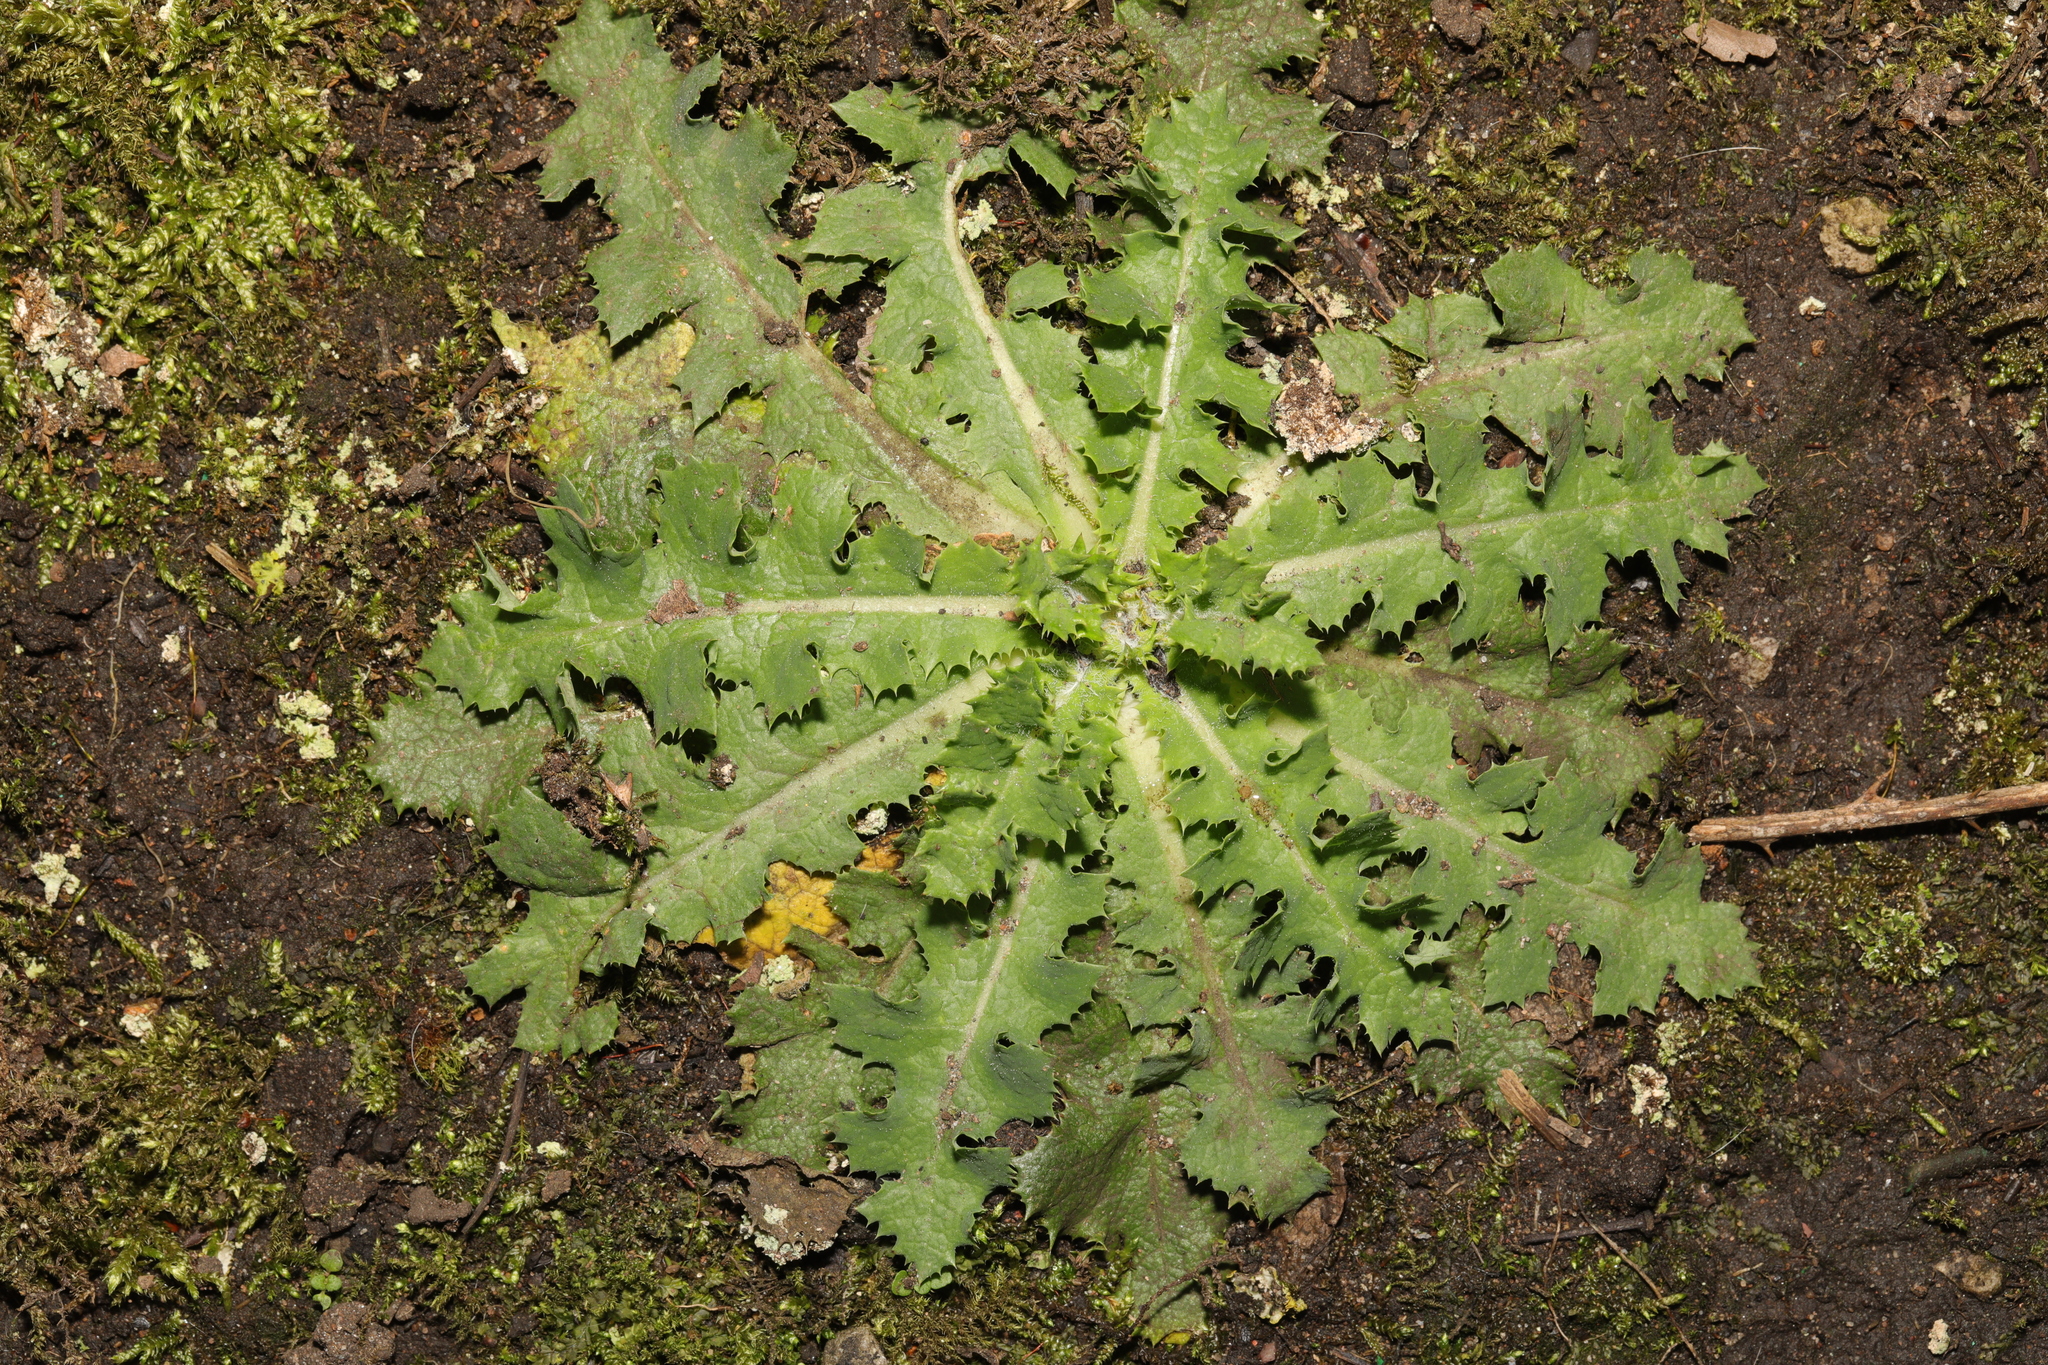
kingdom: Plantae
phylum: Tracheophyta
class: Magnoliopsida
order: Asterales
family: Asteraceae
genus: Sonchus
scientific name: Sonchus asper
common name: Prickly sow-thistle
